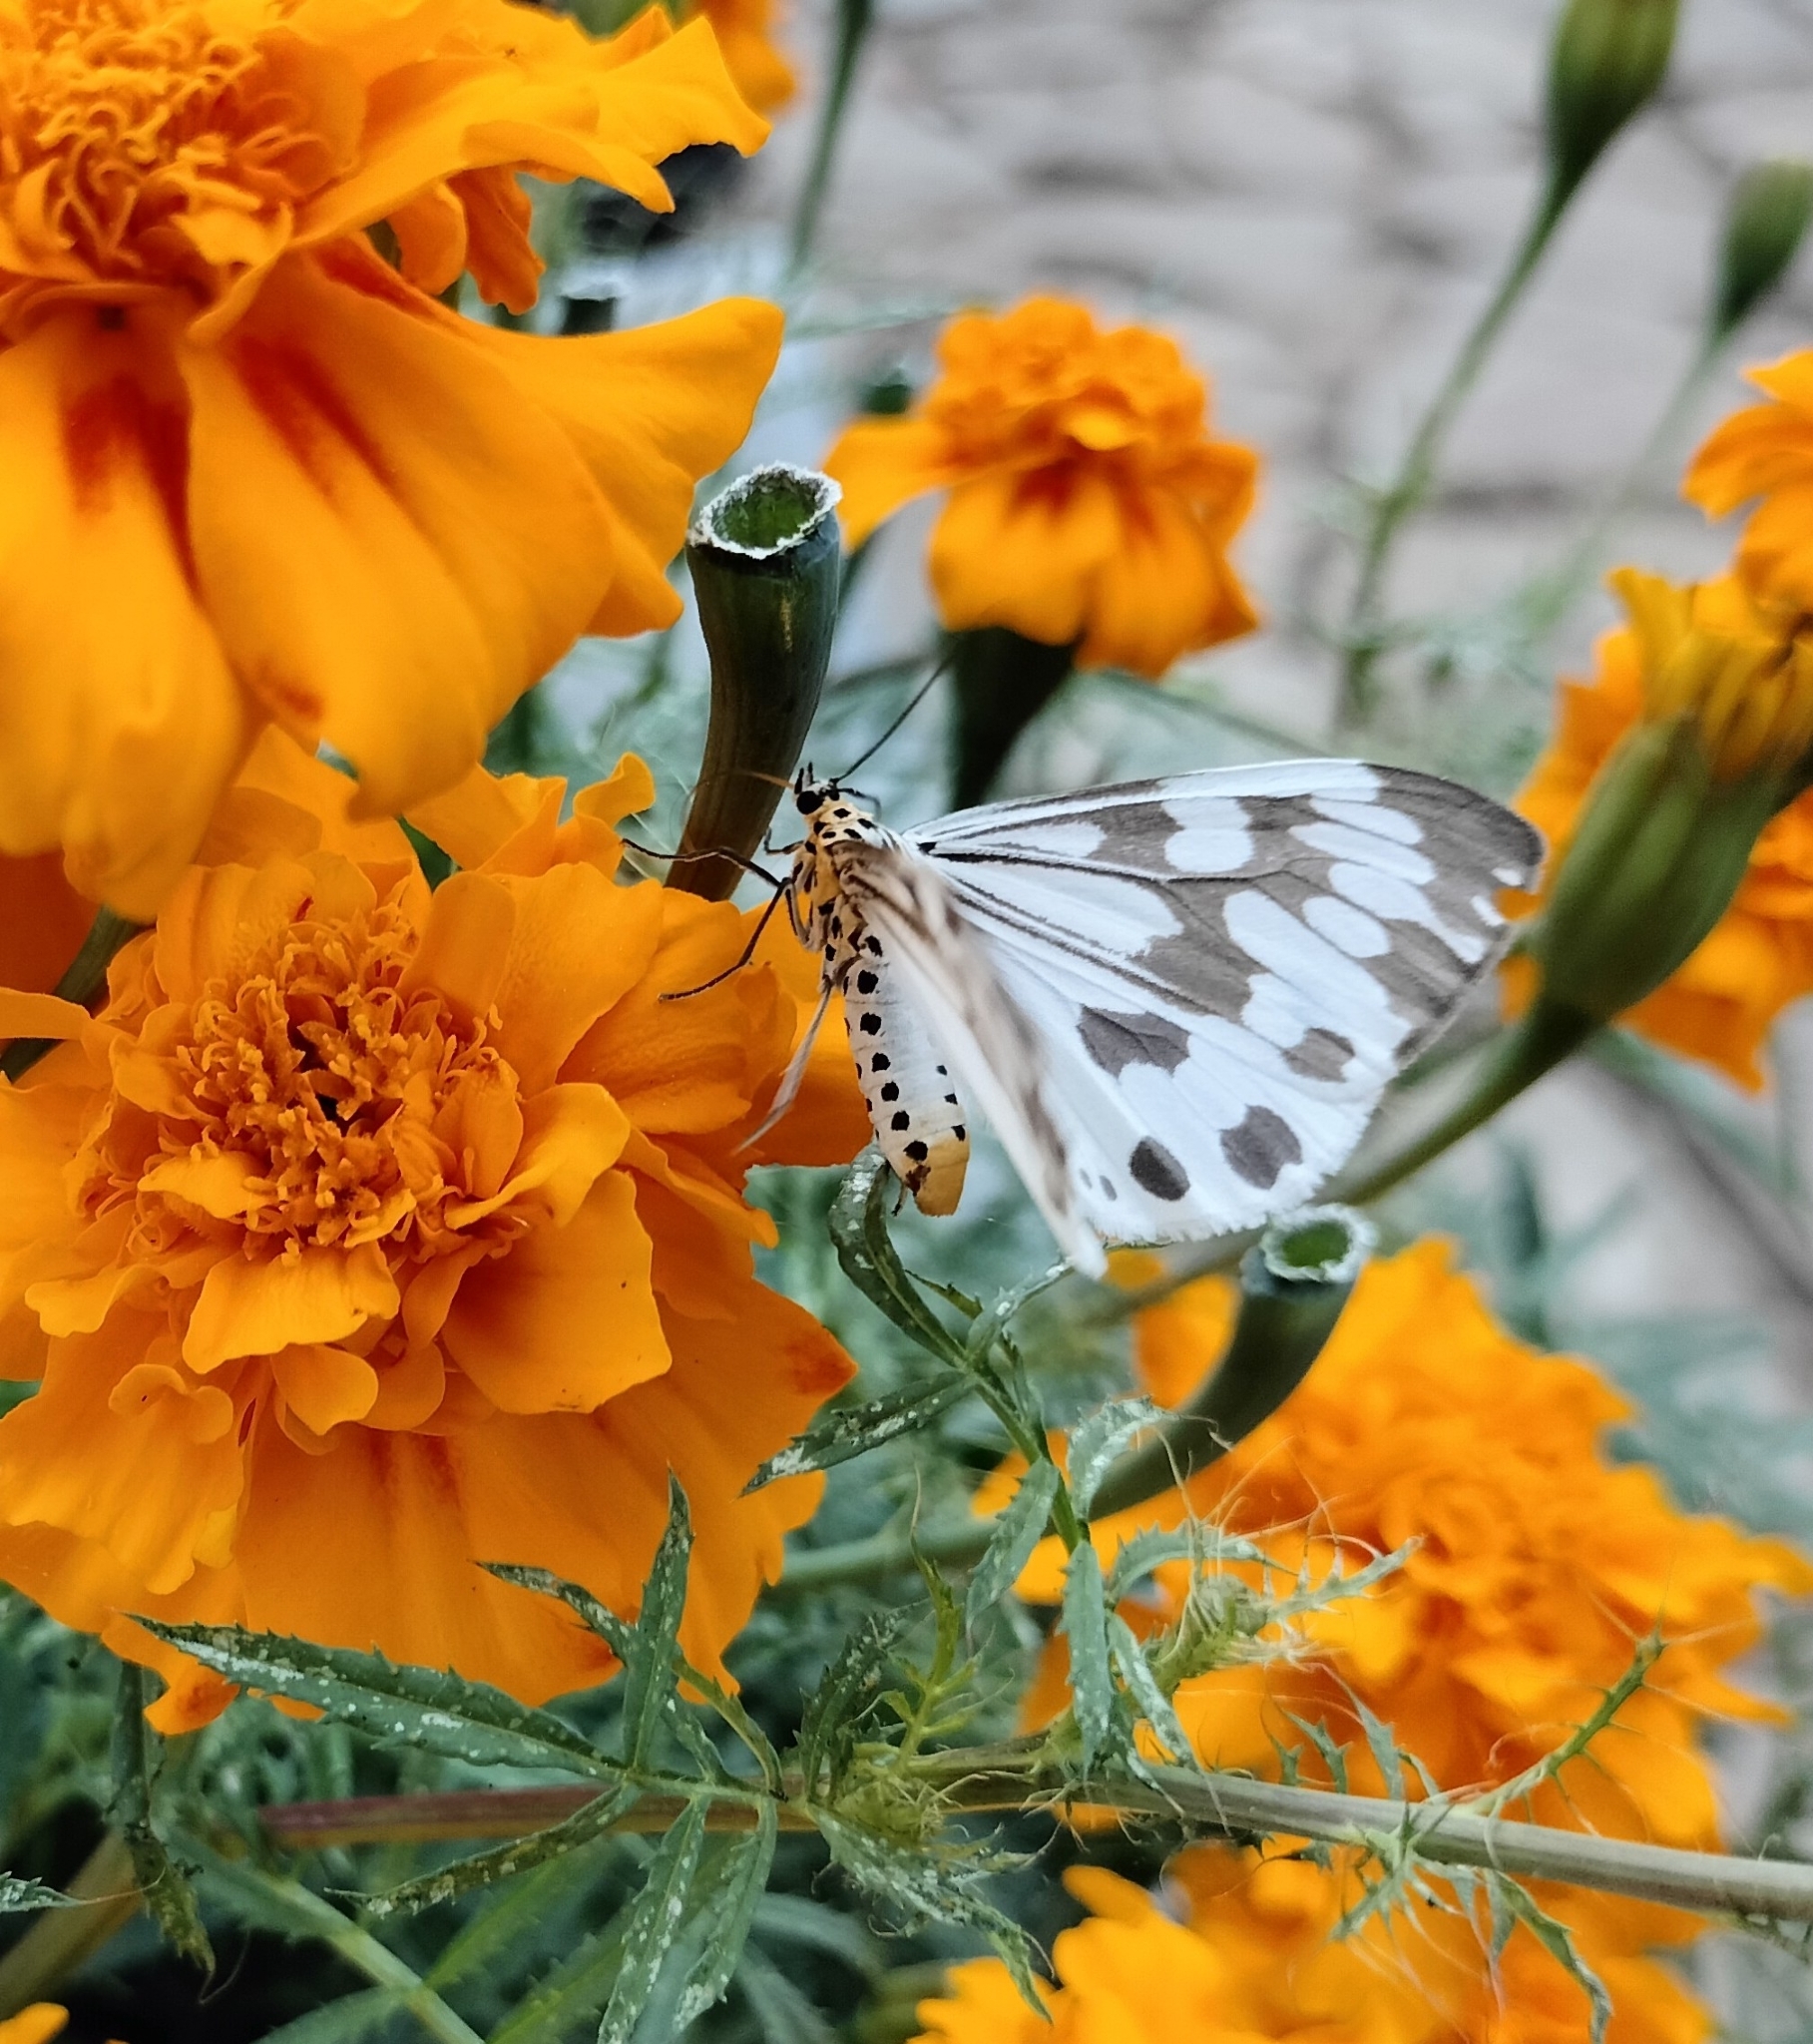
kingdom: Animalia
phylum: Arthropoda
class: Insecta
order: Lepidoptera
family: Erebidae
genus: Nyctemera
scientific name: Nyctemera adversata
